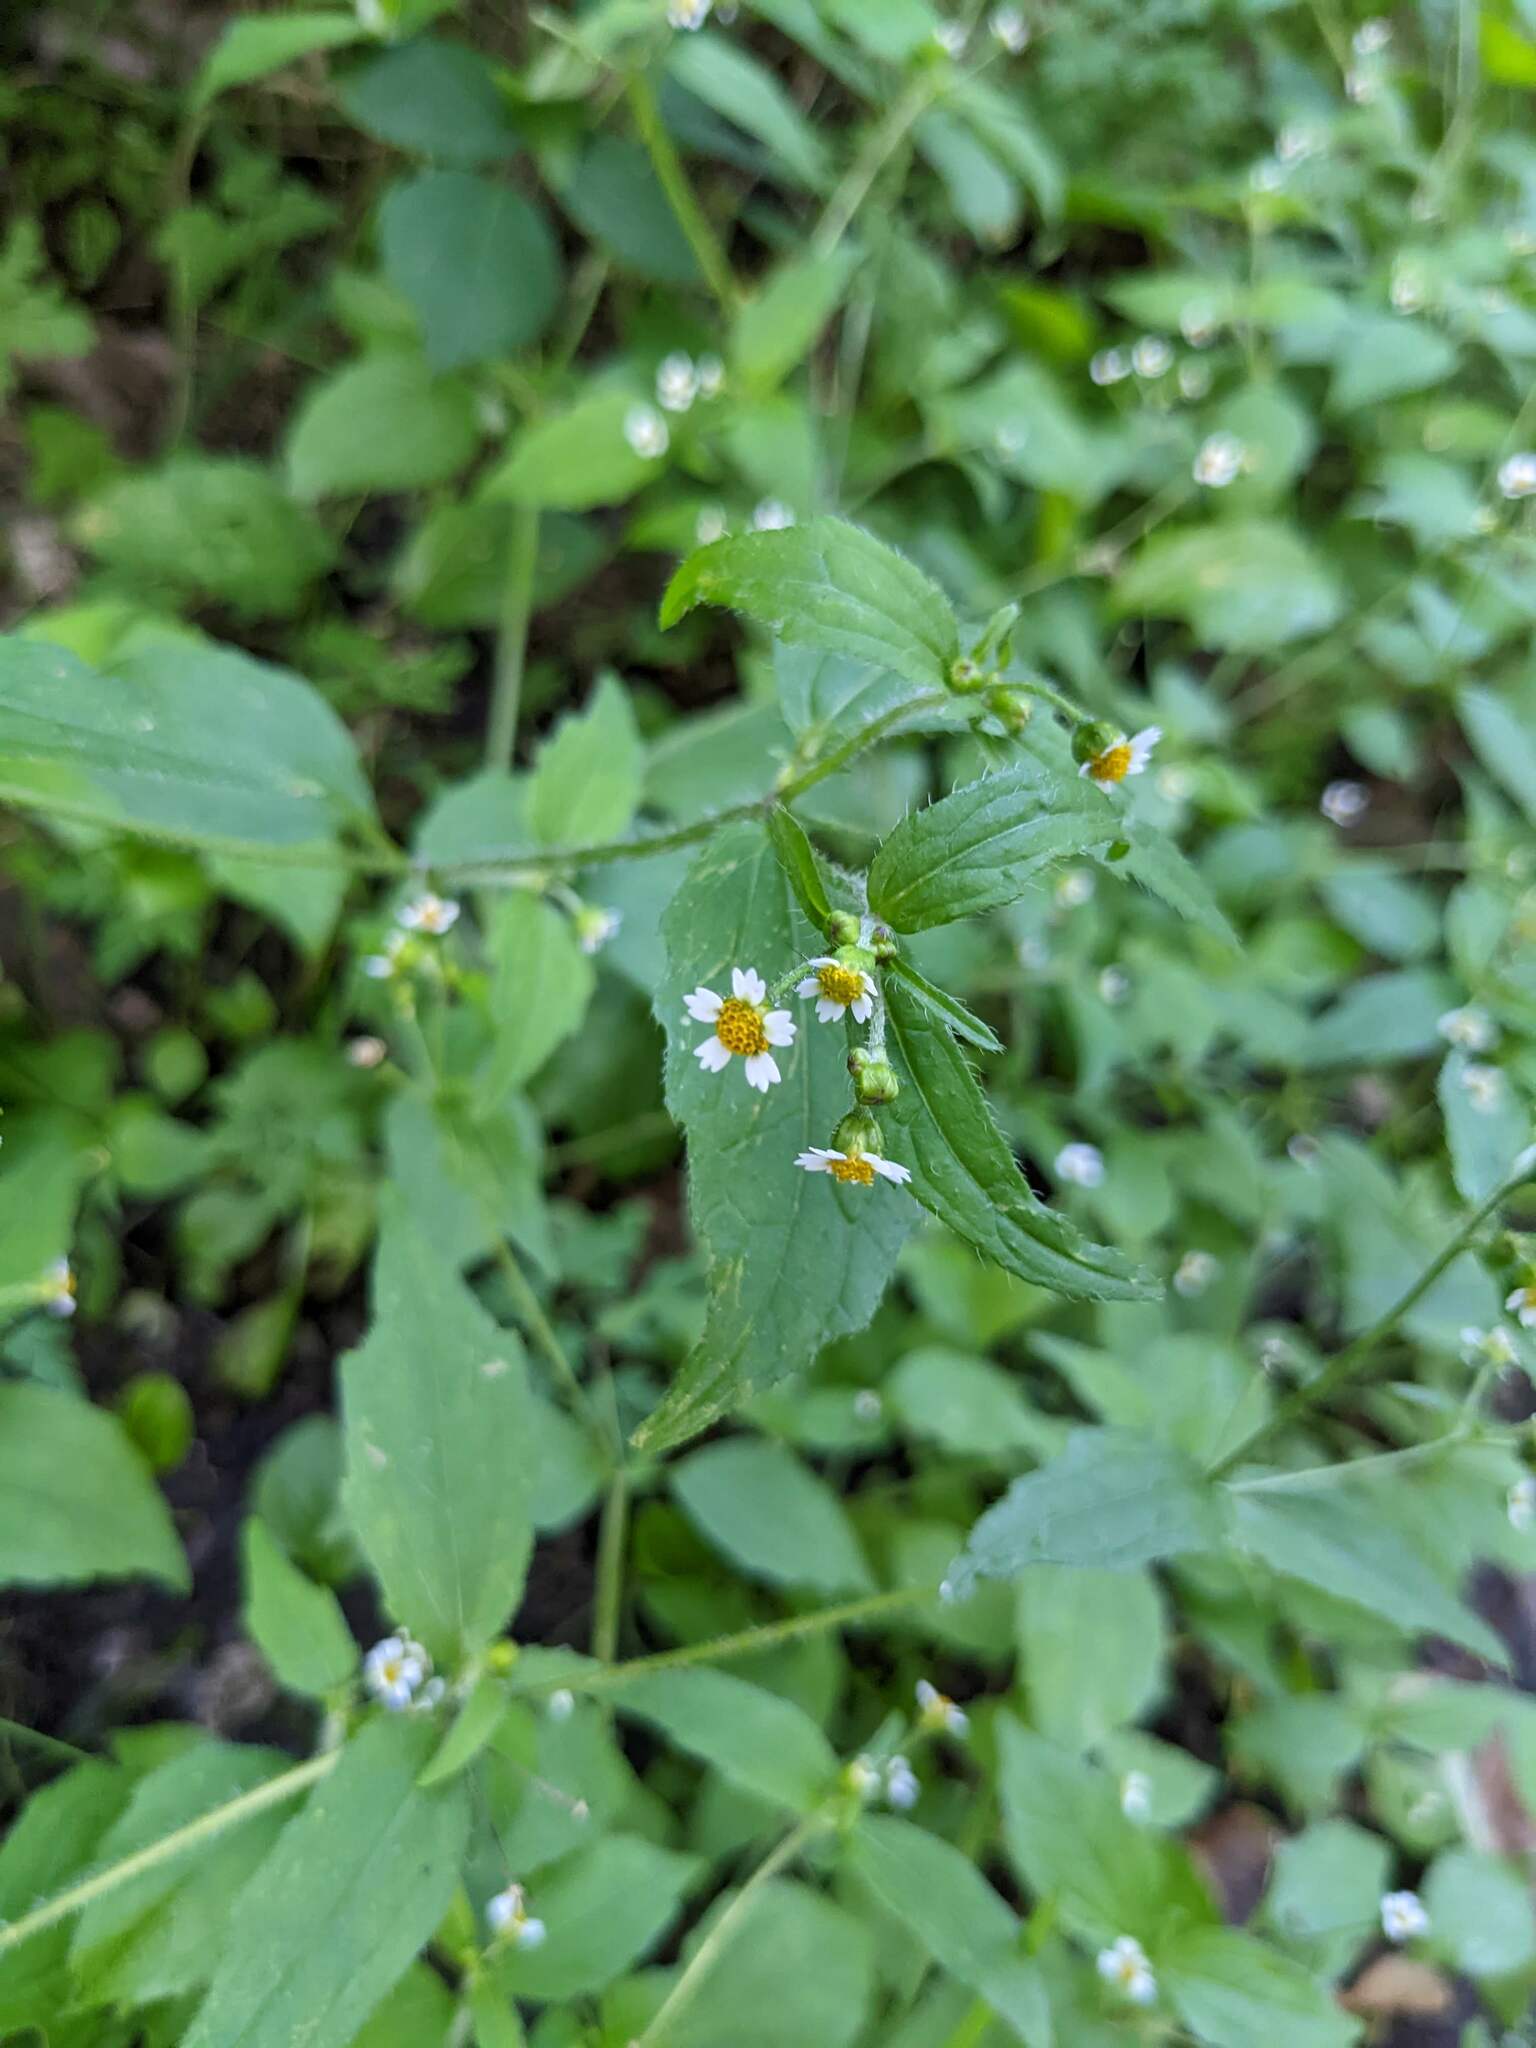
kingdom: Plantae
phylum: Tracheophyta
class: Magnoliopsida
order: Asterales
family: Asteraceae
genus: Galinsoga
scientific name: Galinsoga quadriradiata
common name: Shaggy soldier
